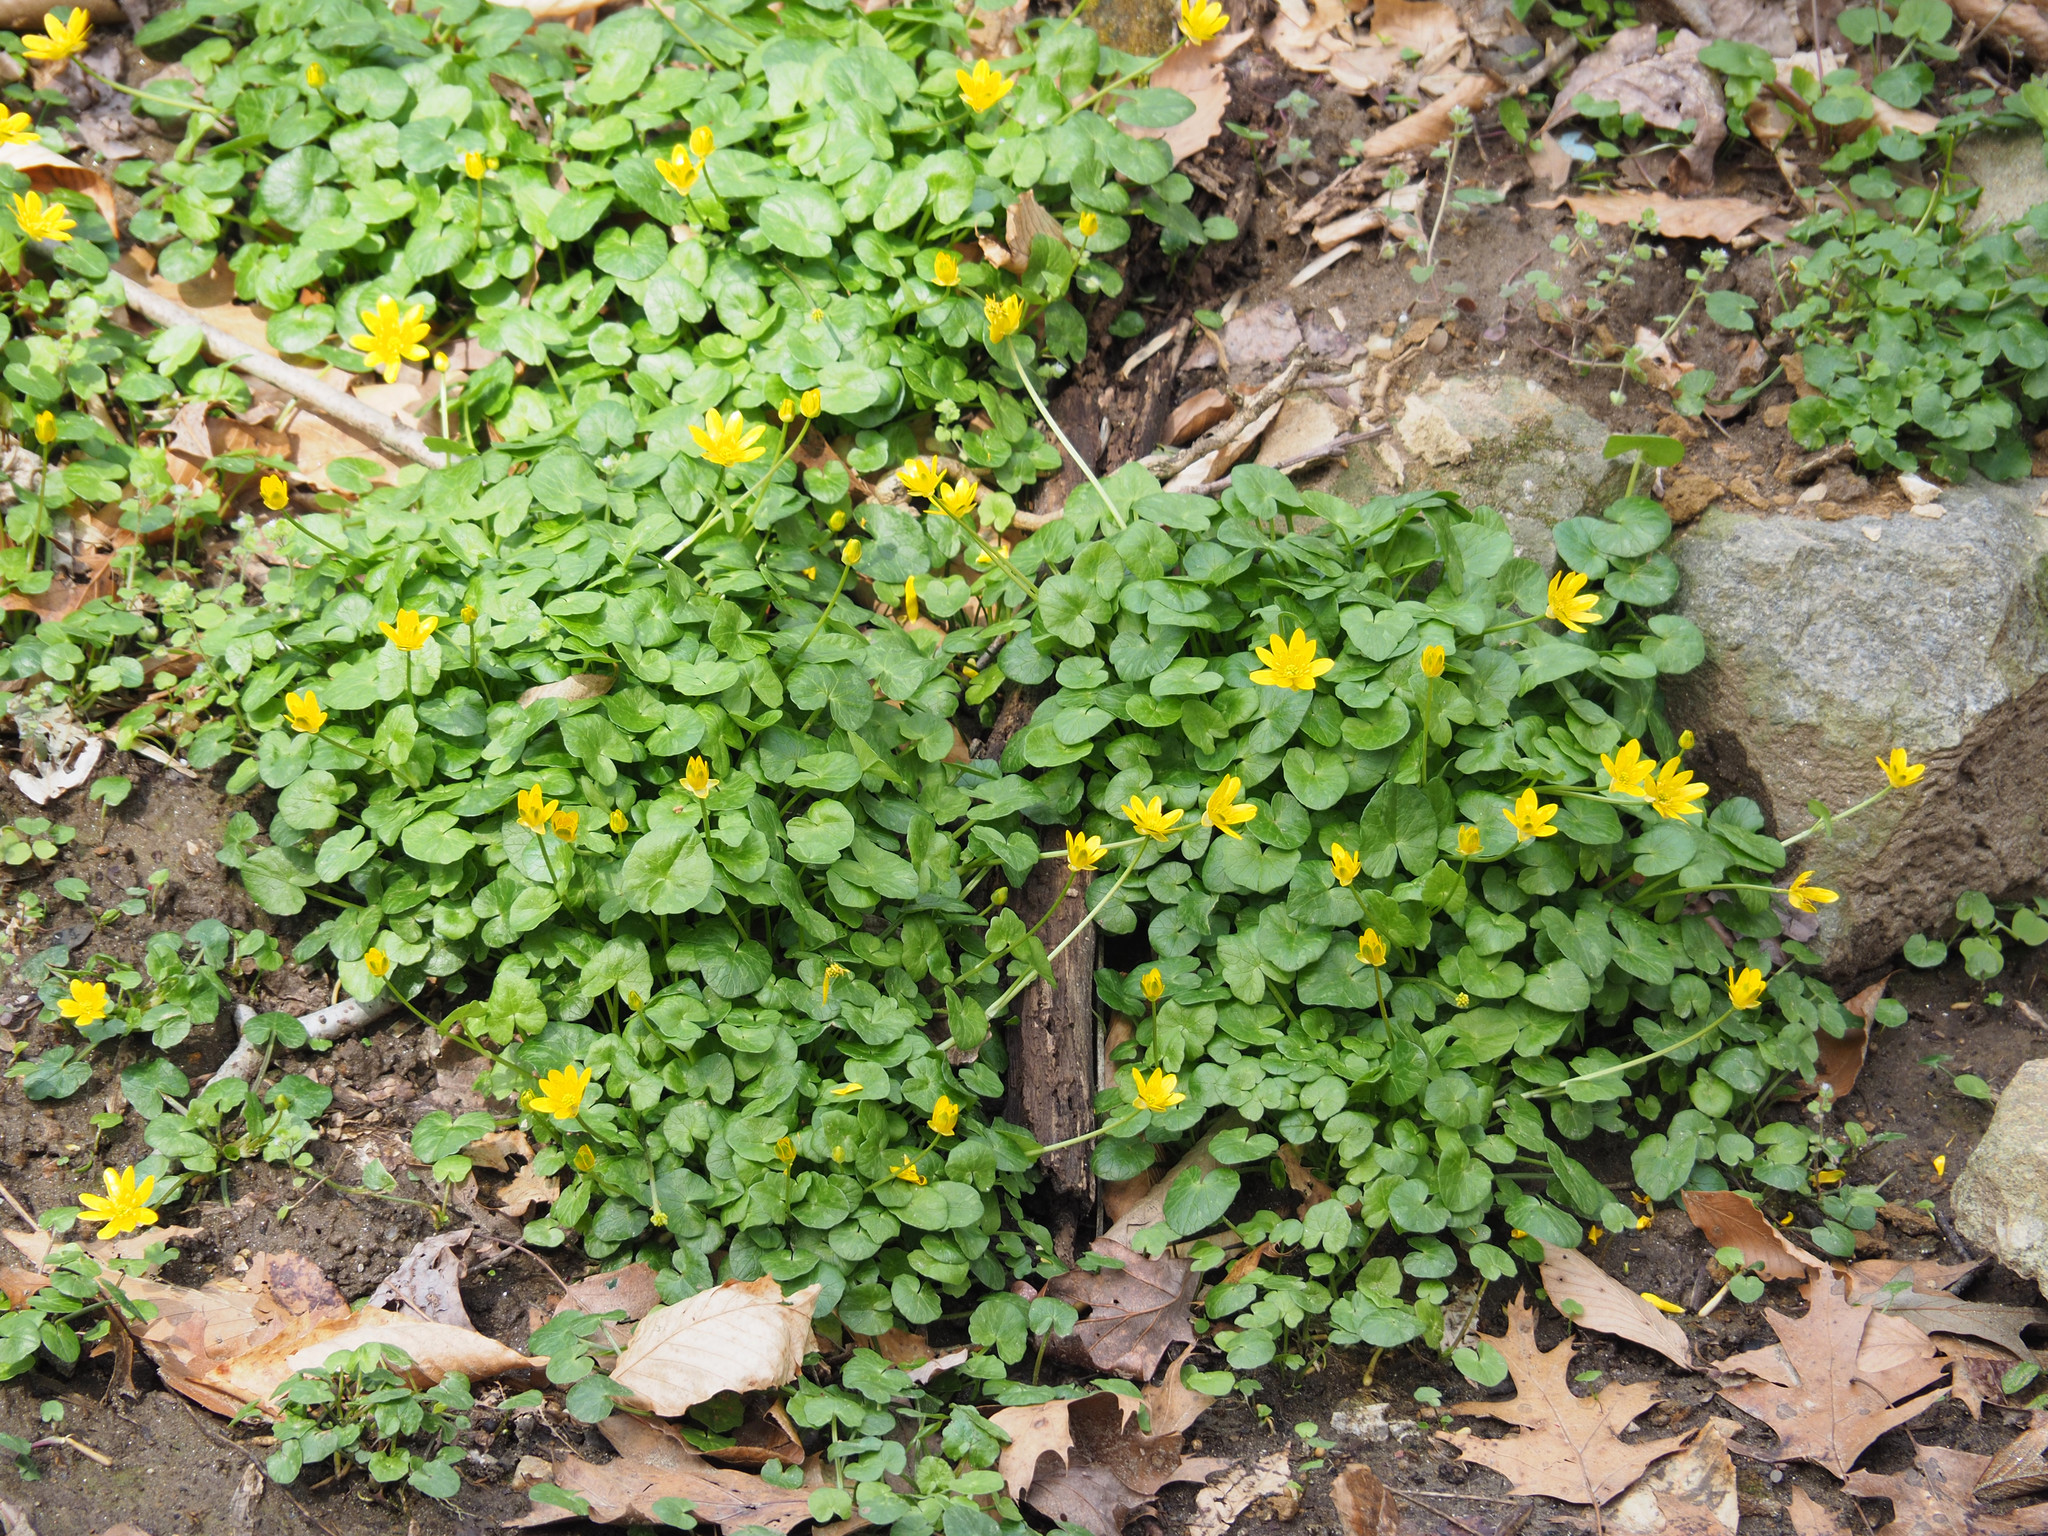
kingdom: Plantae
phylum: Tracheophyta
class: Magnoliopsida
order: Ranunculales
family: Ranunculaceae
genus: Ficaria
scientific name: Ficaria verna
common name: Lesser celandine
